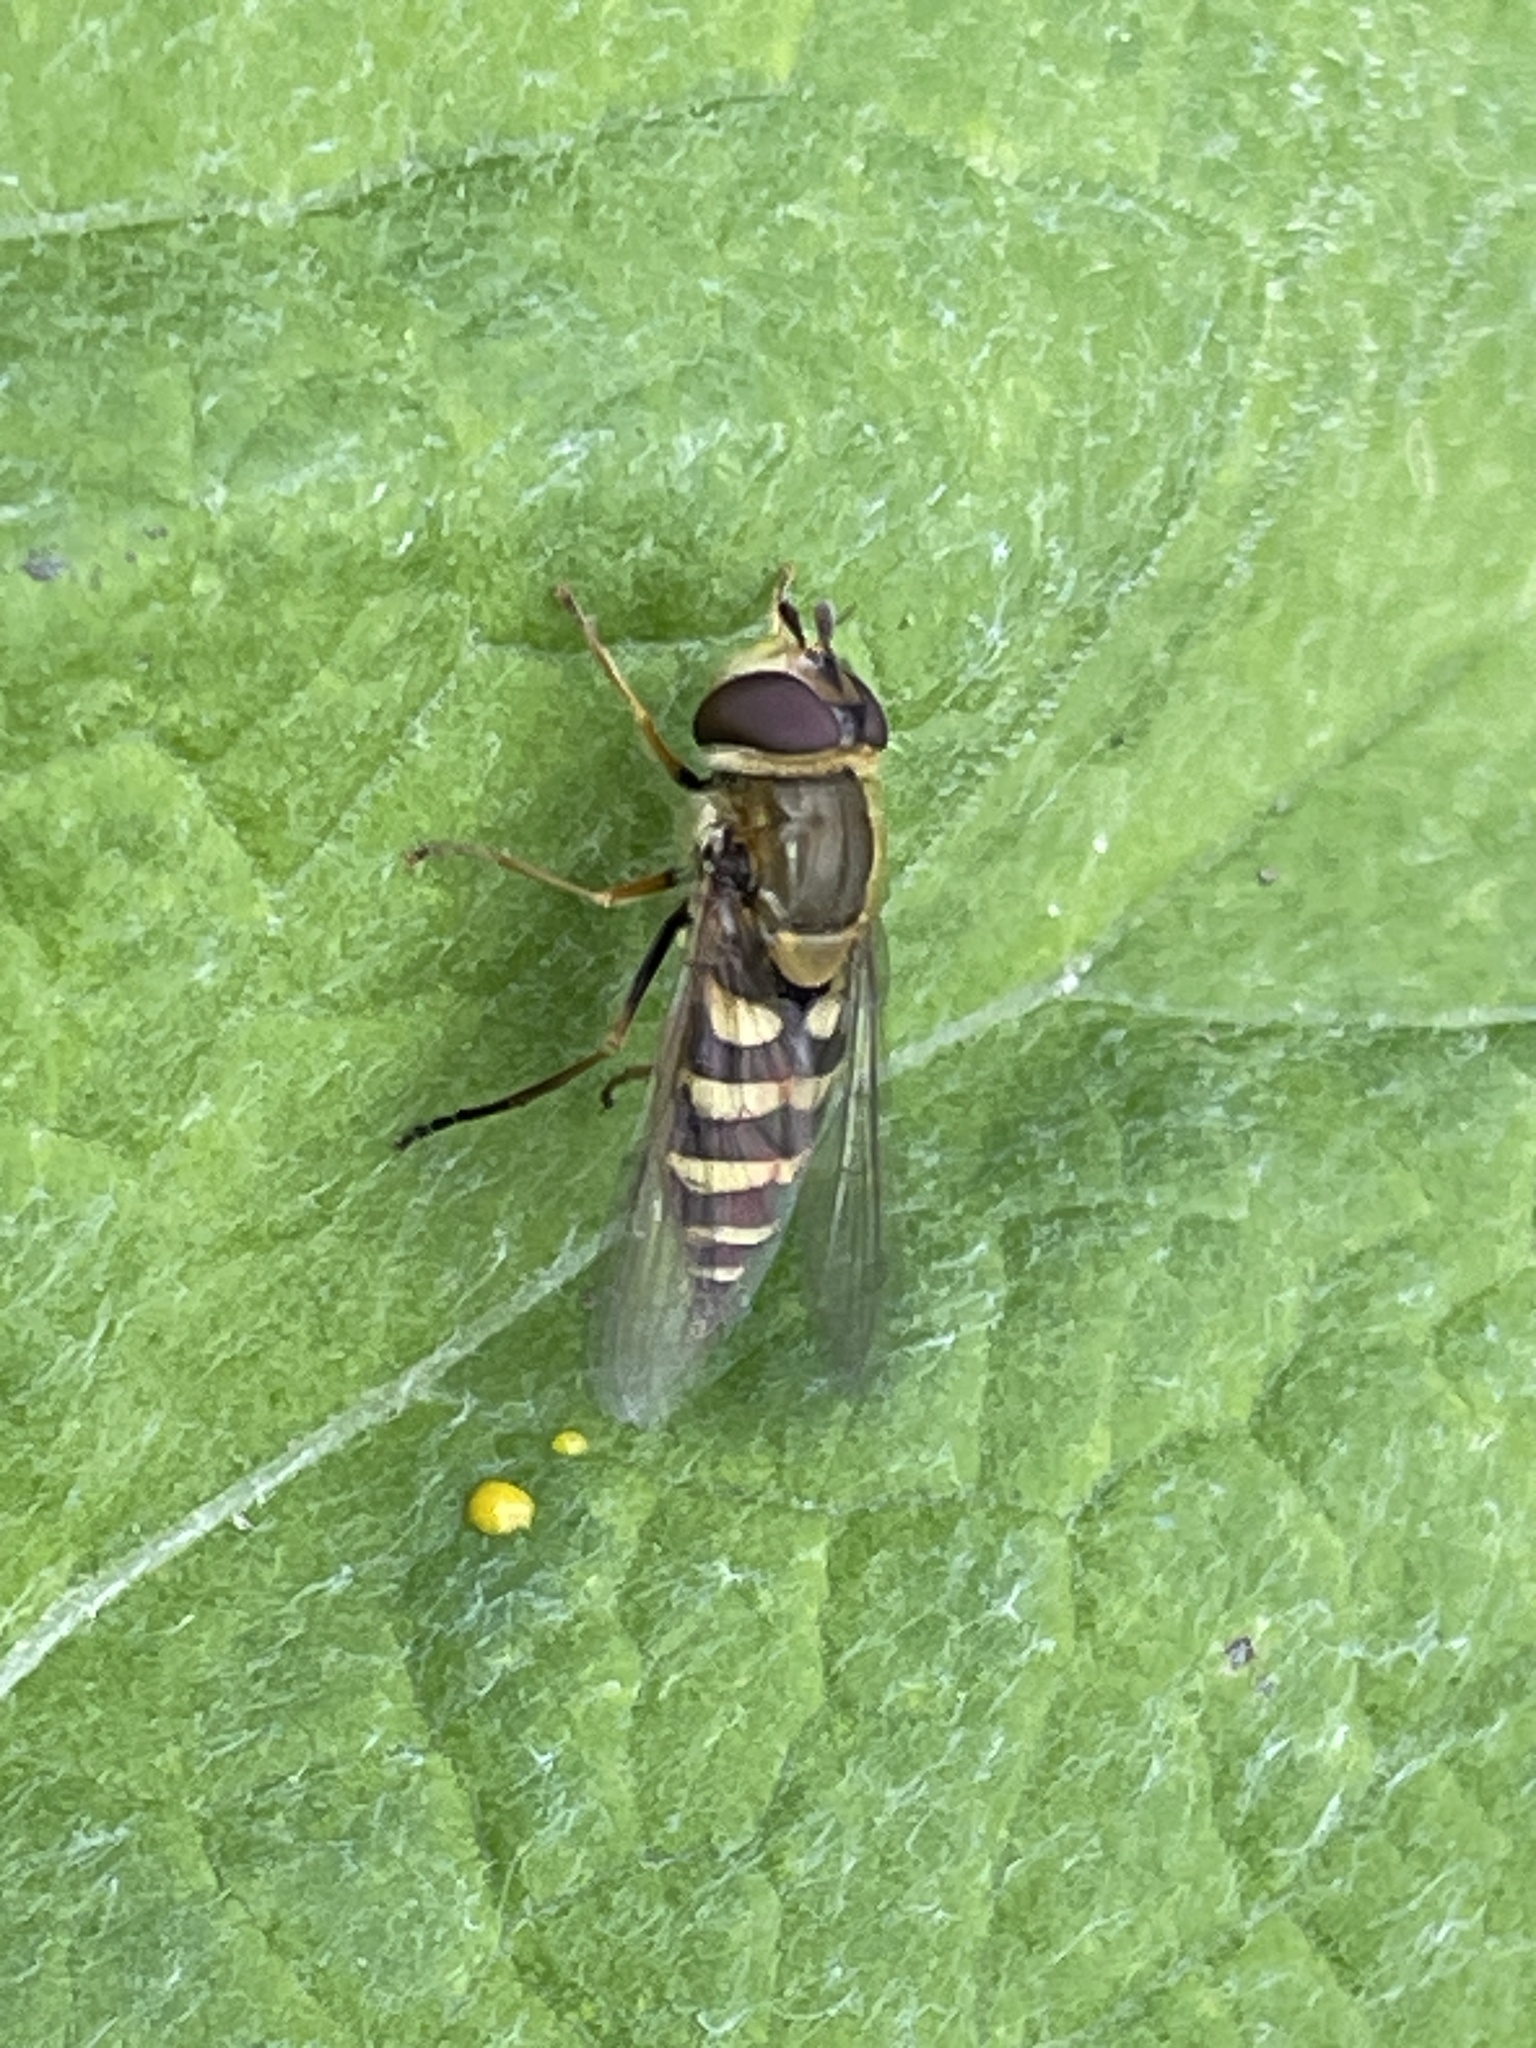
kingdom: Animalia
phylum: Arthropoda
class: Insecta
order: Diptera
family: Syrphidae
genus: Syrphus
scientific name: Syrphus
